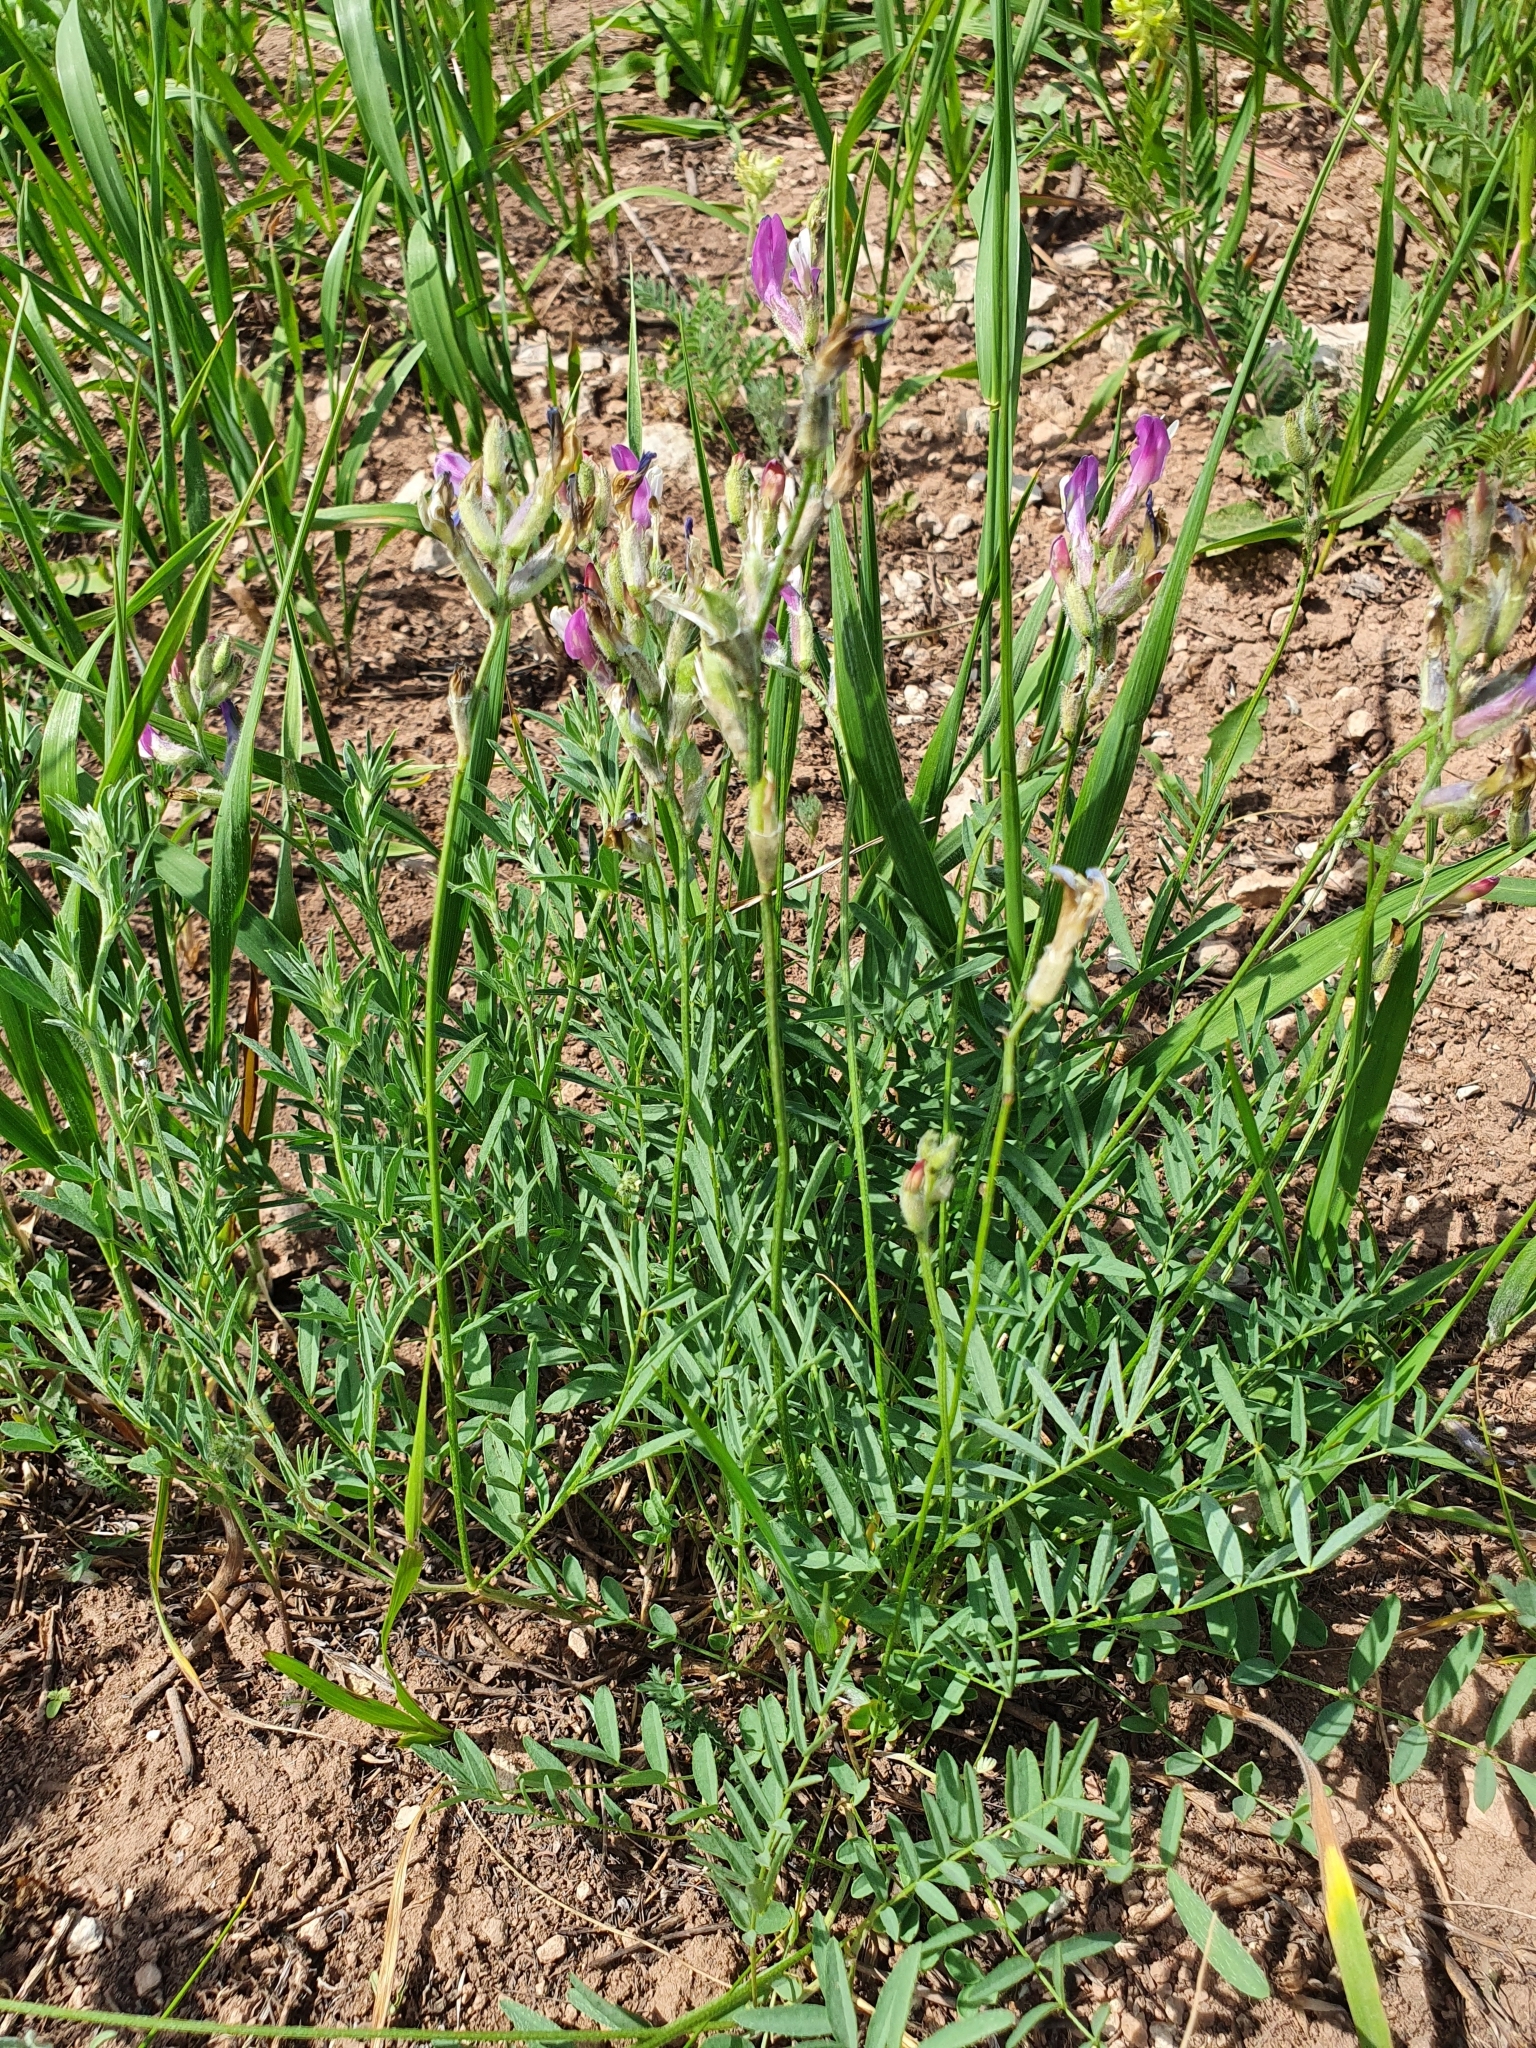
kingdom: Plantae
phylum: Tracheophyta
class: Magnoliopsida
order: Fabales
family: Fabaceae
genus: Astragalus
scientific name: Astragalus macropus
